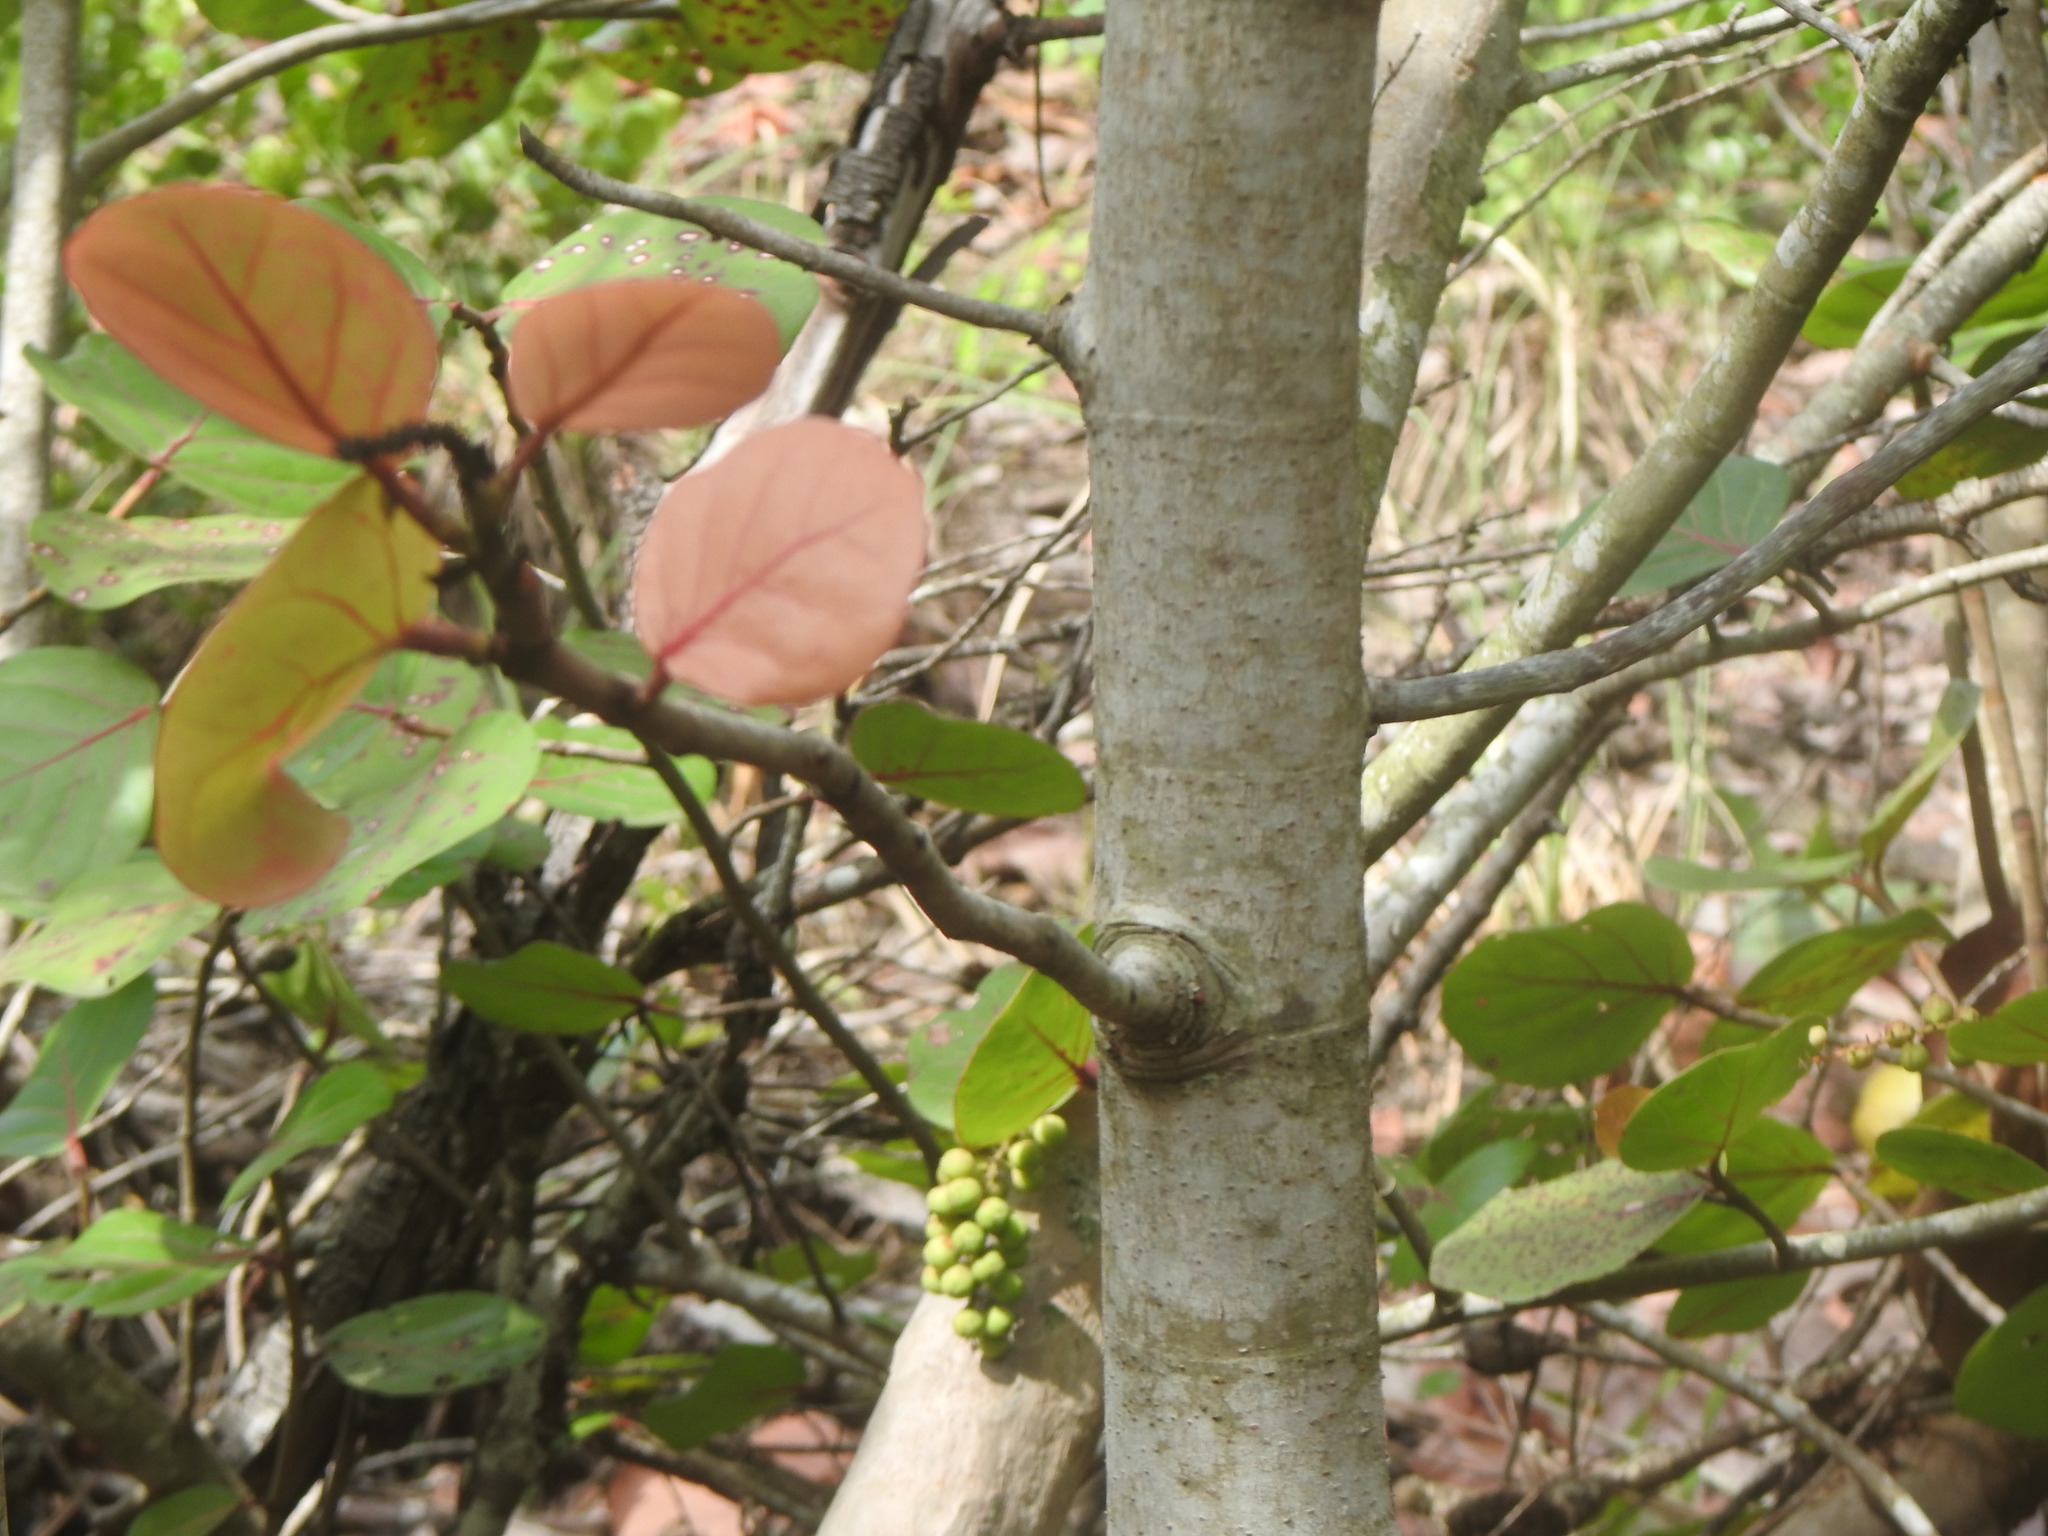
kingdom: Plantae
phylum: Tracheophyta
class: Magnoliopsida
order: Caryophyllales
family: Polygonaceae
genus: Coccoloba
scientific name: Coccoloba uvifera
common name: Seagrape
